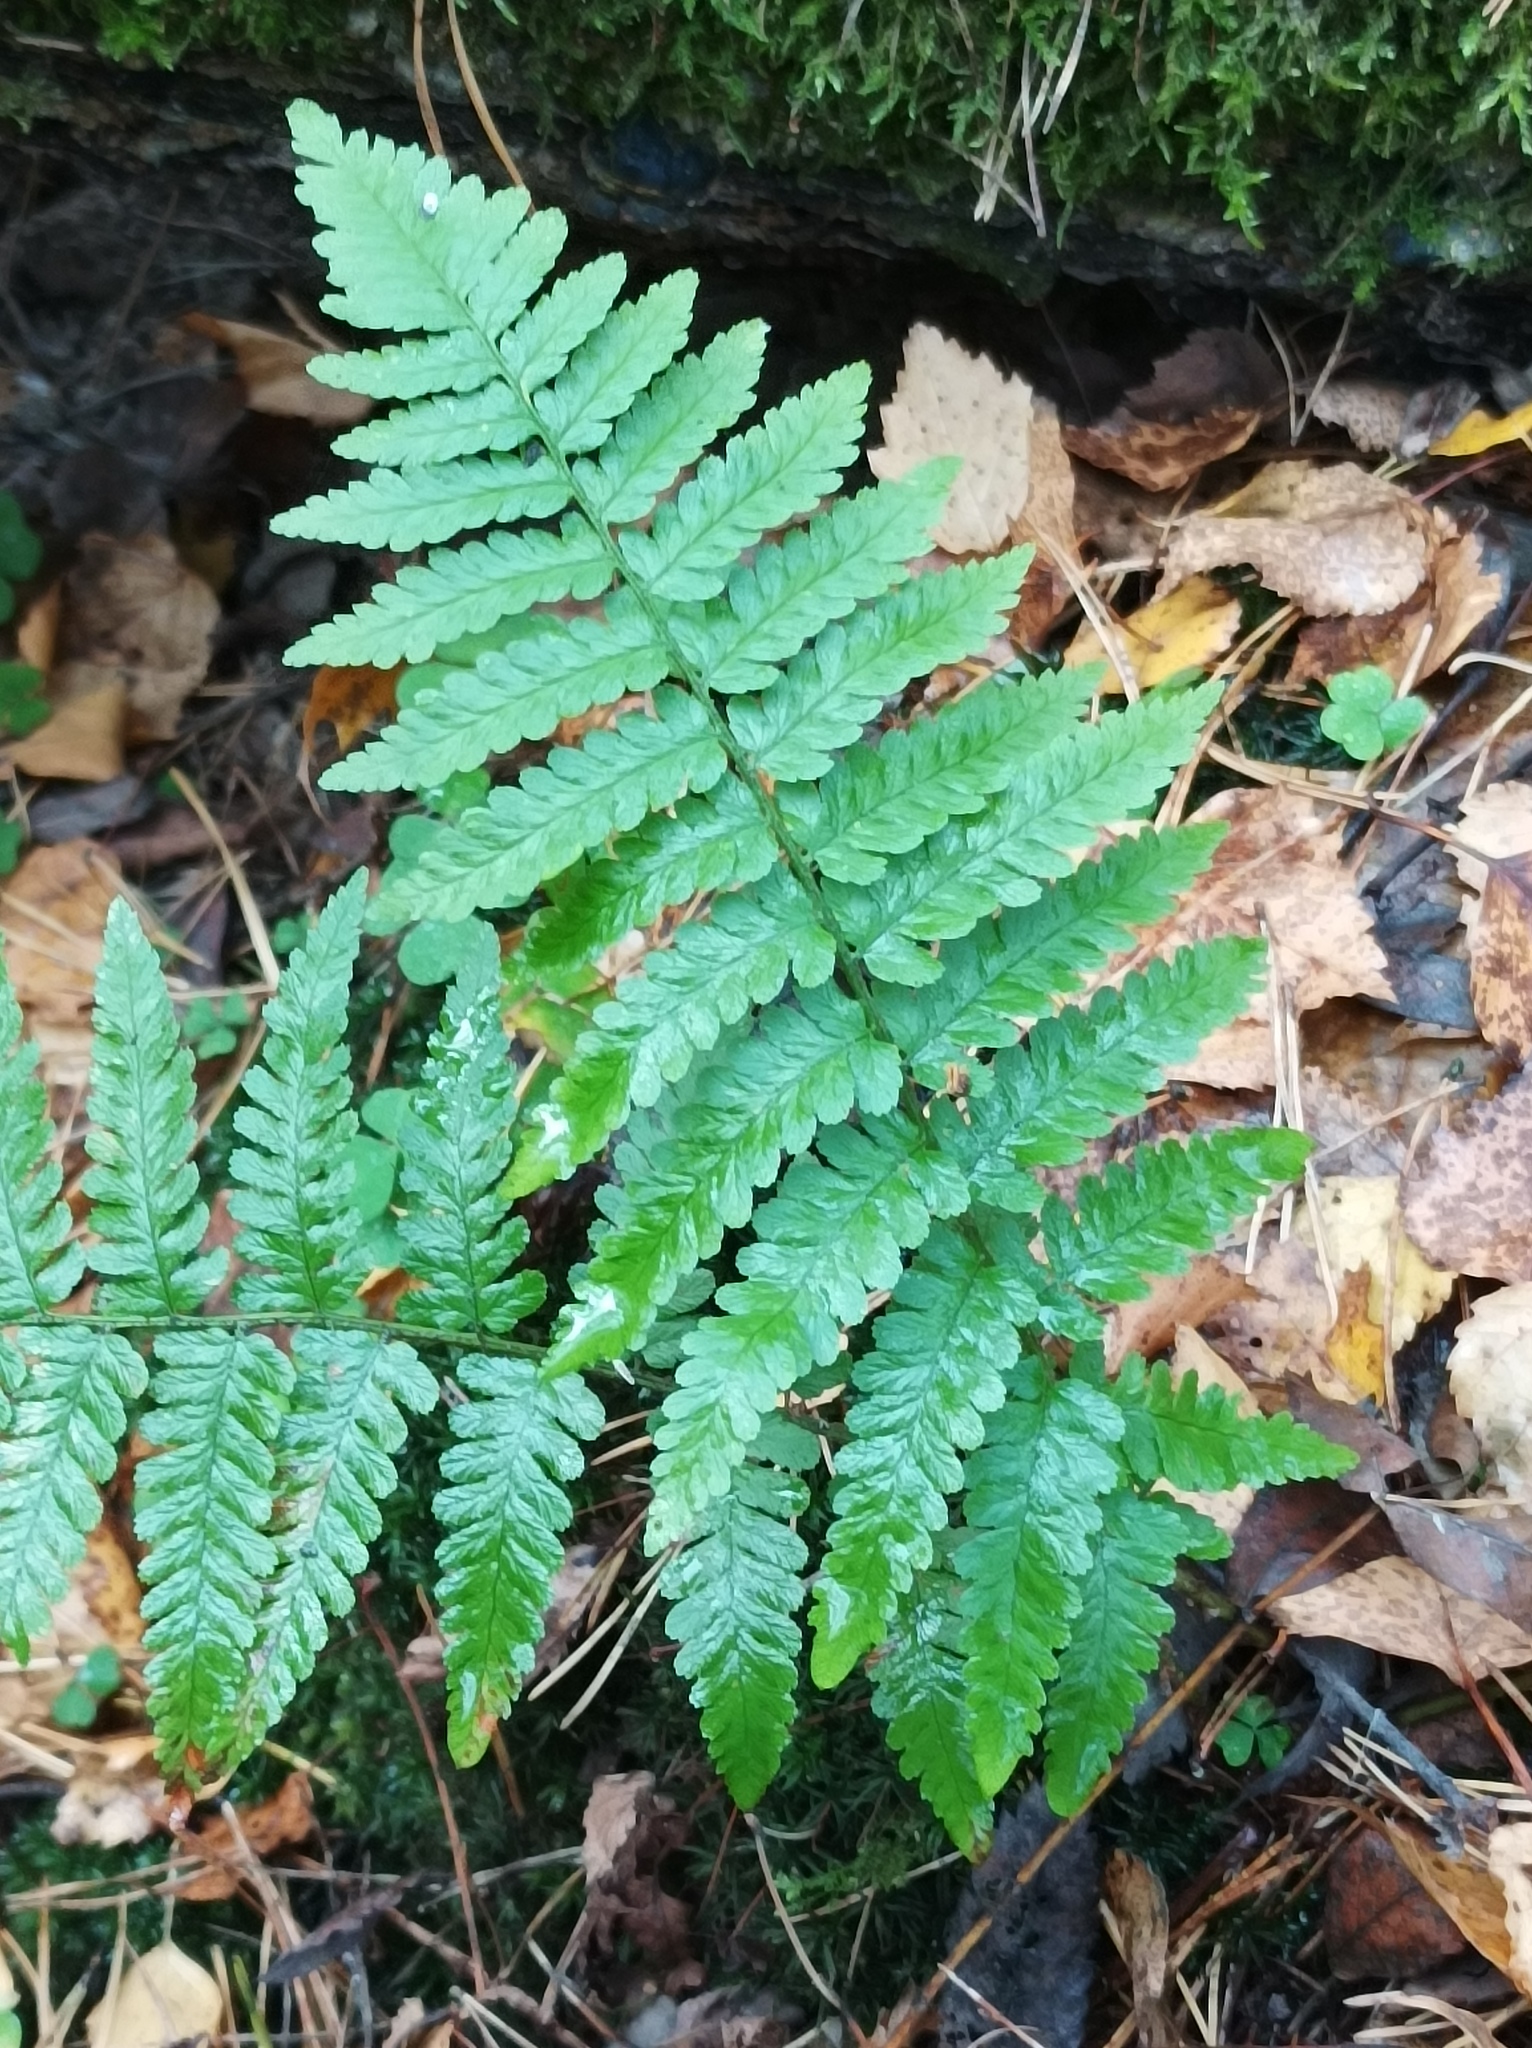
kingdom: Plantae
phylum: Tracheophyta
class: Polypodiopsida
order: Polypodiales
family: Dryopteridaceae
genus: Dryopteris
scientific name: Dryopteris filix-mas
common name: Male fern
